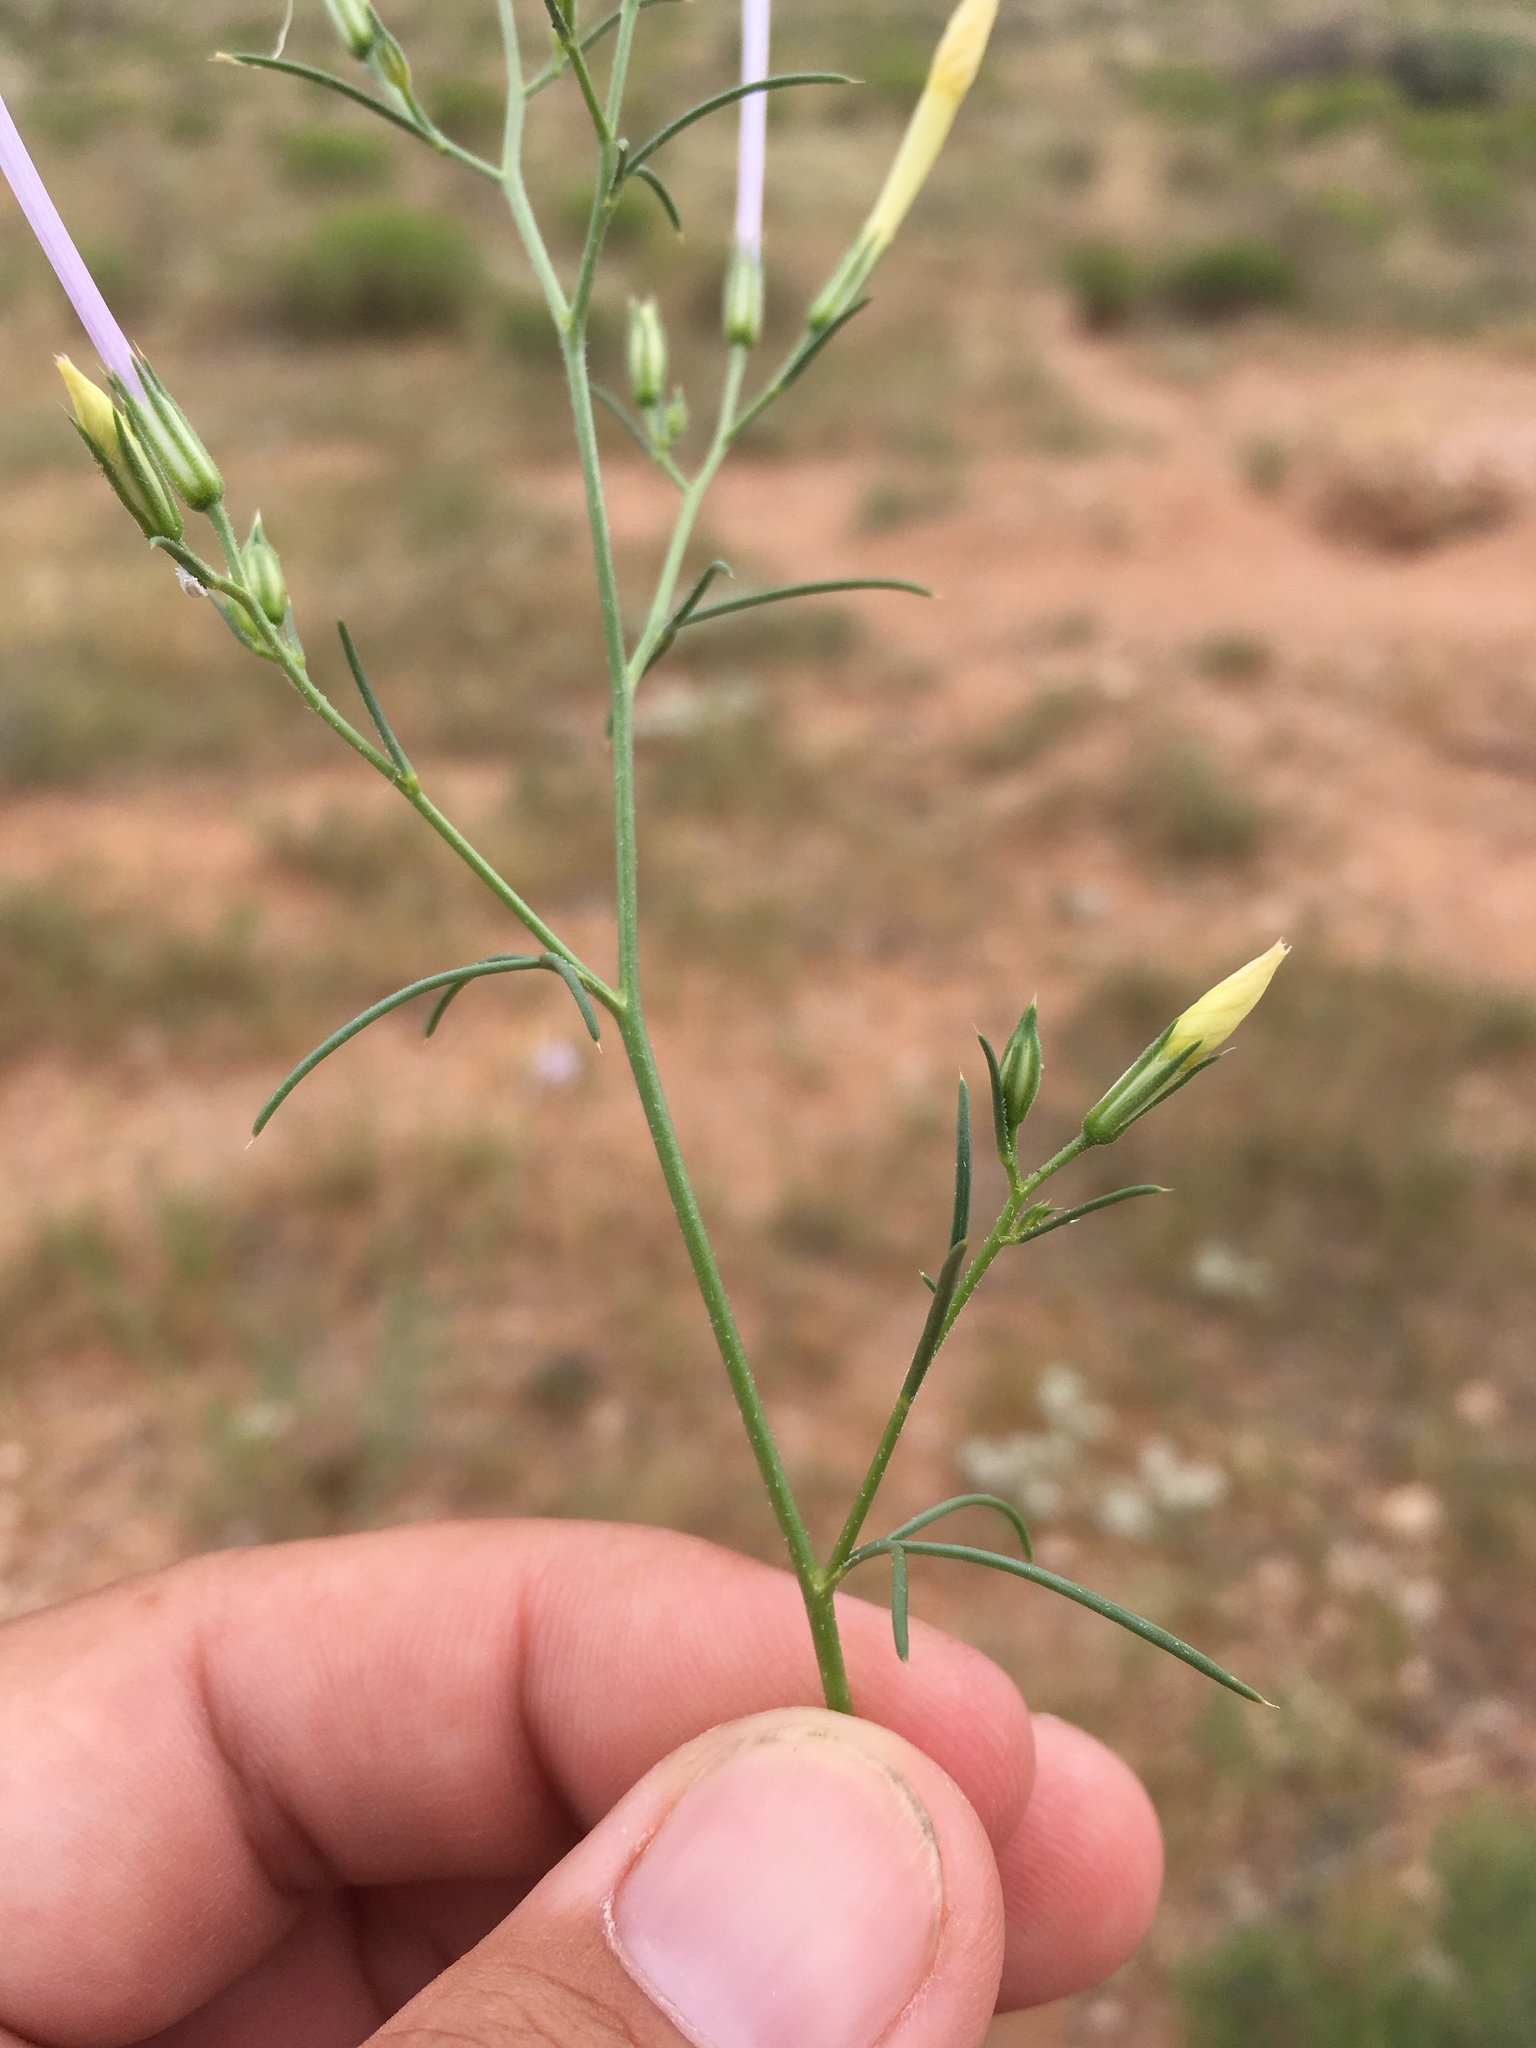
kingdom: Plantae
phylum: Tracheophyta
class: Magnoliopsida
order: Ericales
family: Polemoniaceae
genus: Ipomopsis
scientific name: Ipomopsis longiflora
